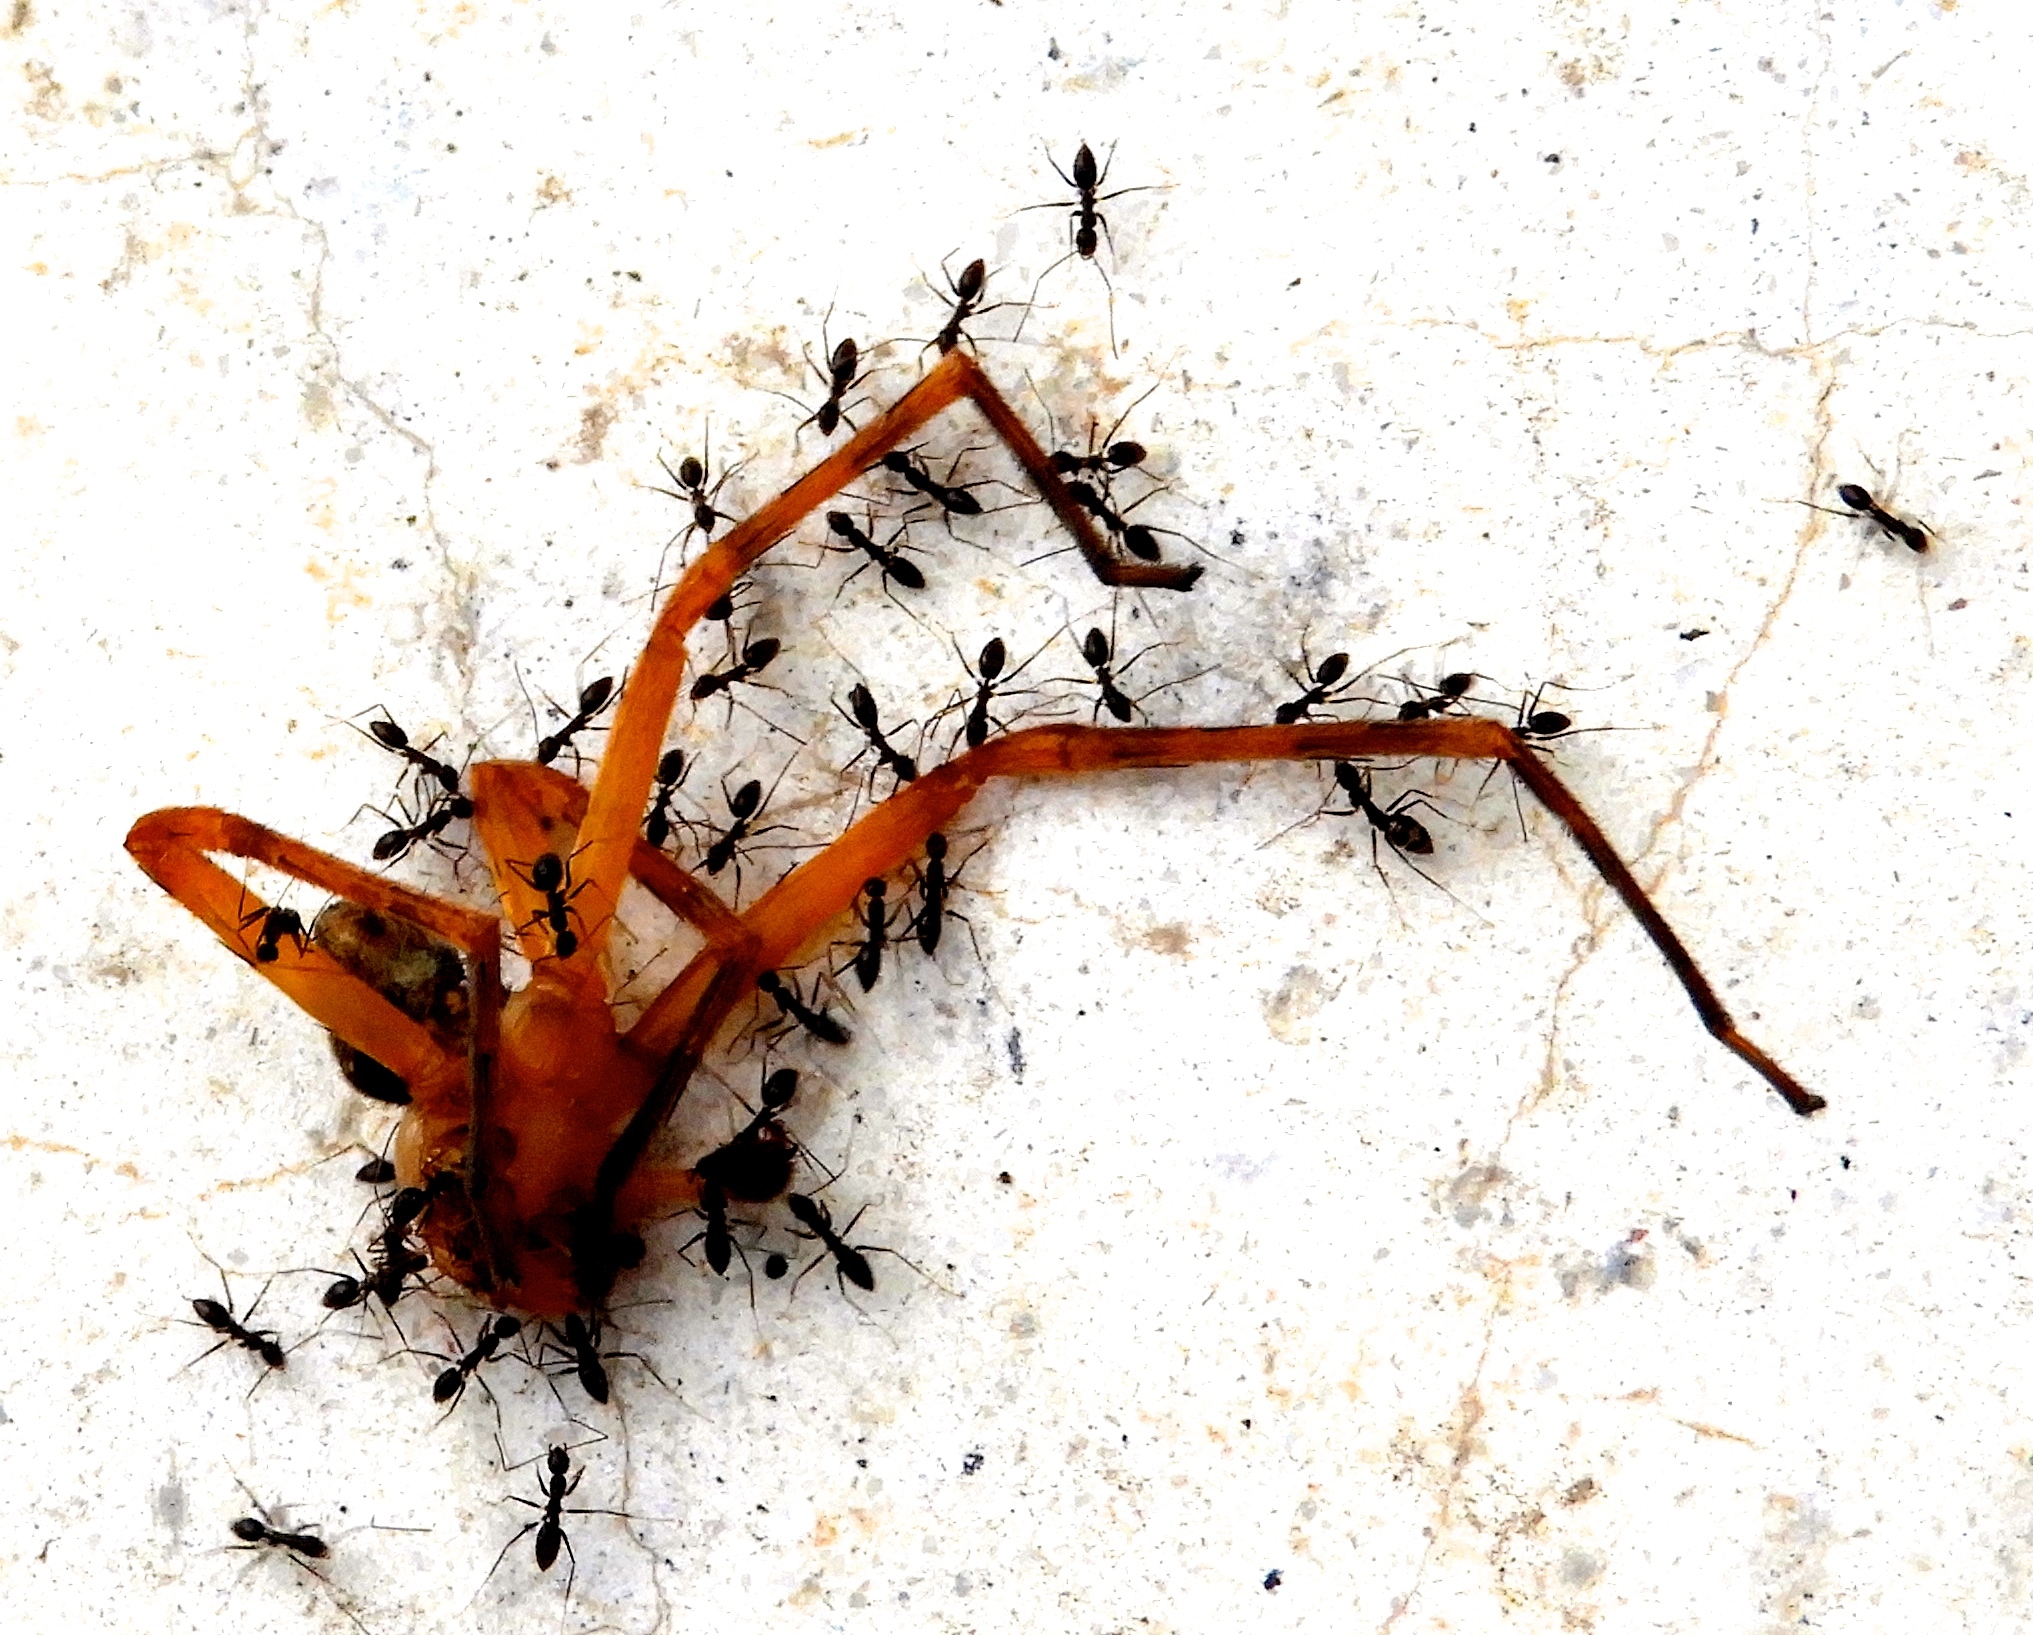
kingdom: Animalia
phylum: Arthropoda
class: Insecta
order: Hymenoptera
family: Formicidae
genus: Paratrechina
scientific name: Paratrechina longicornis
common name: Longhorned crazy ant
